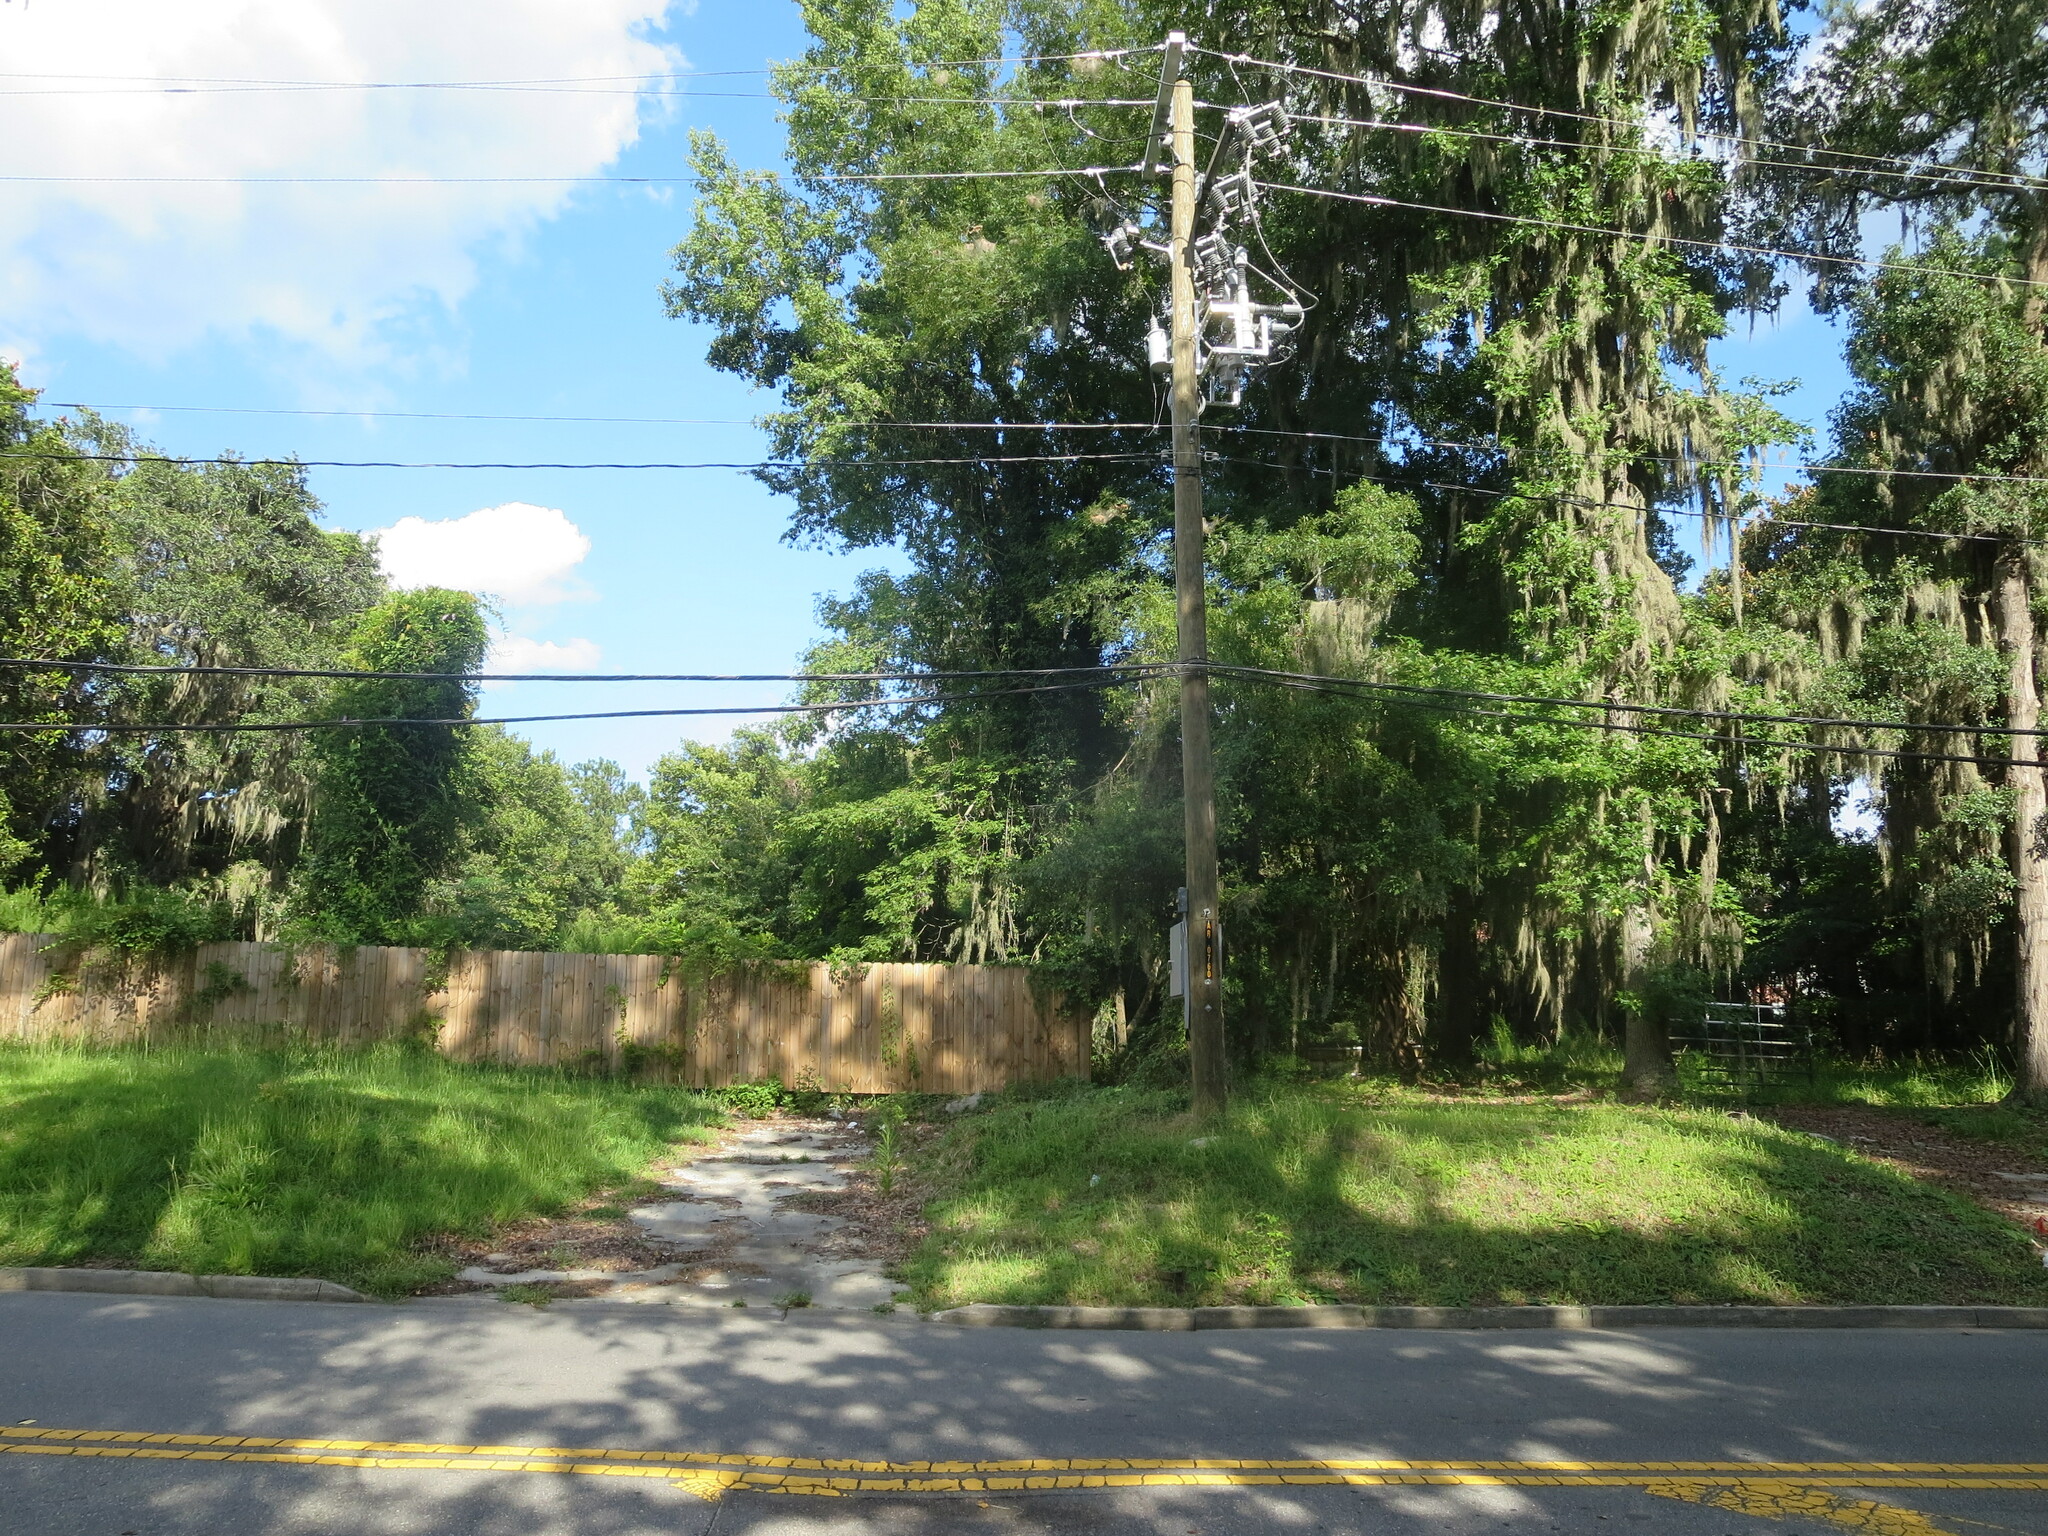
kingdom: Animalia
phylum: Arthropoda
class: Insecta
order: Lepidoptera
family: Erebidae
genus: Hyphantria
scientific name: Hyphantria cunea
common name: American white moth
